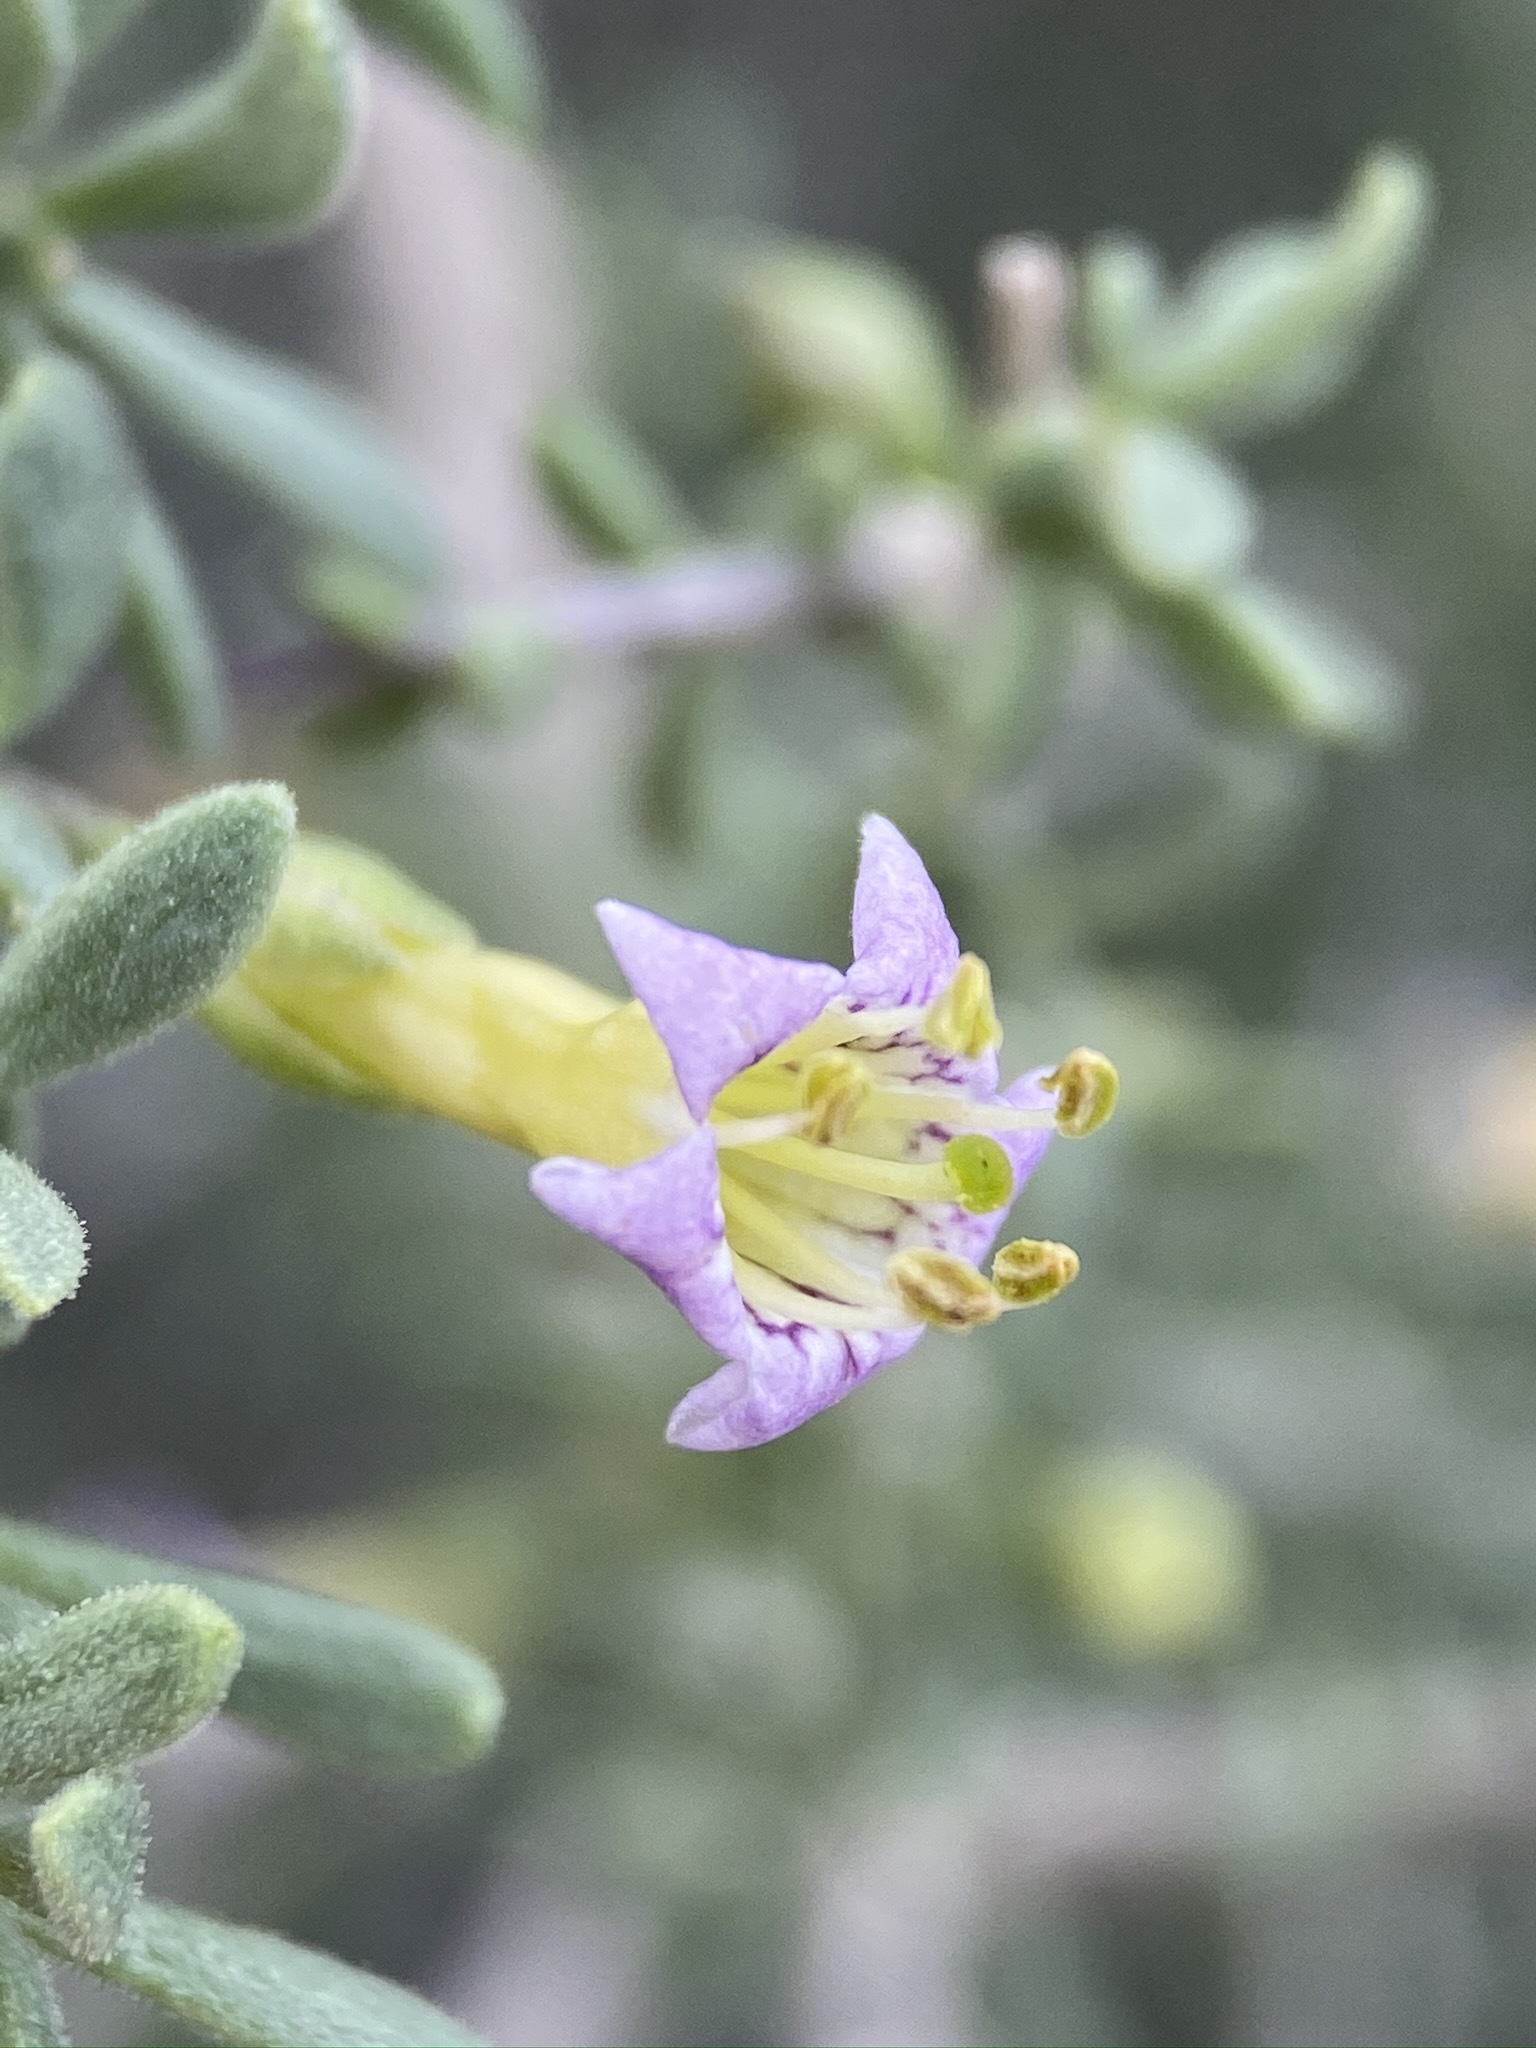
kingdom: Plantae
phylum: Tracheophyta
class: Magnoliopsida
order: Solanales
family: Solanaceae
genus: Lycium
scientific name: Lycium fremontii
